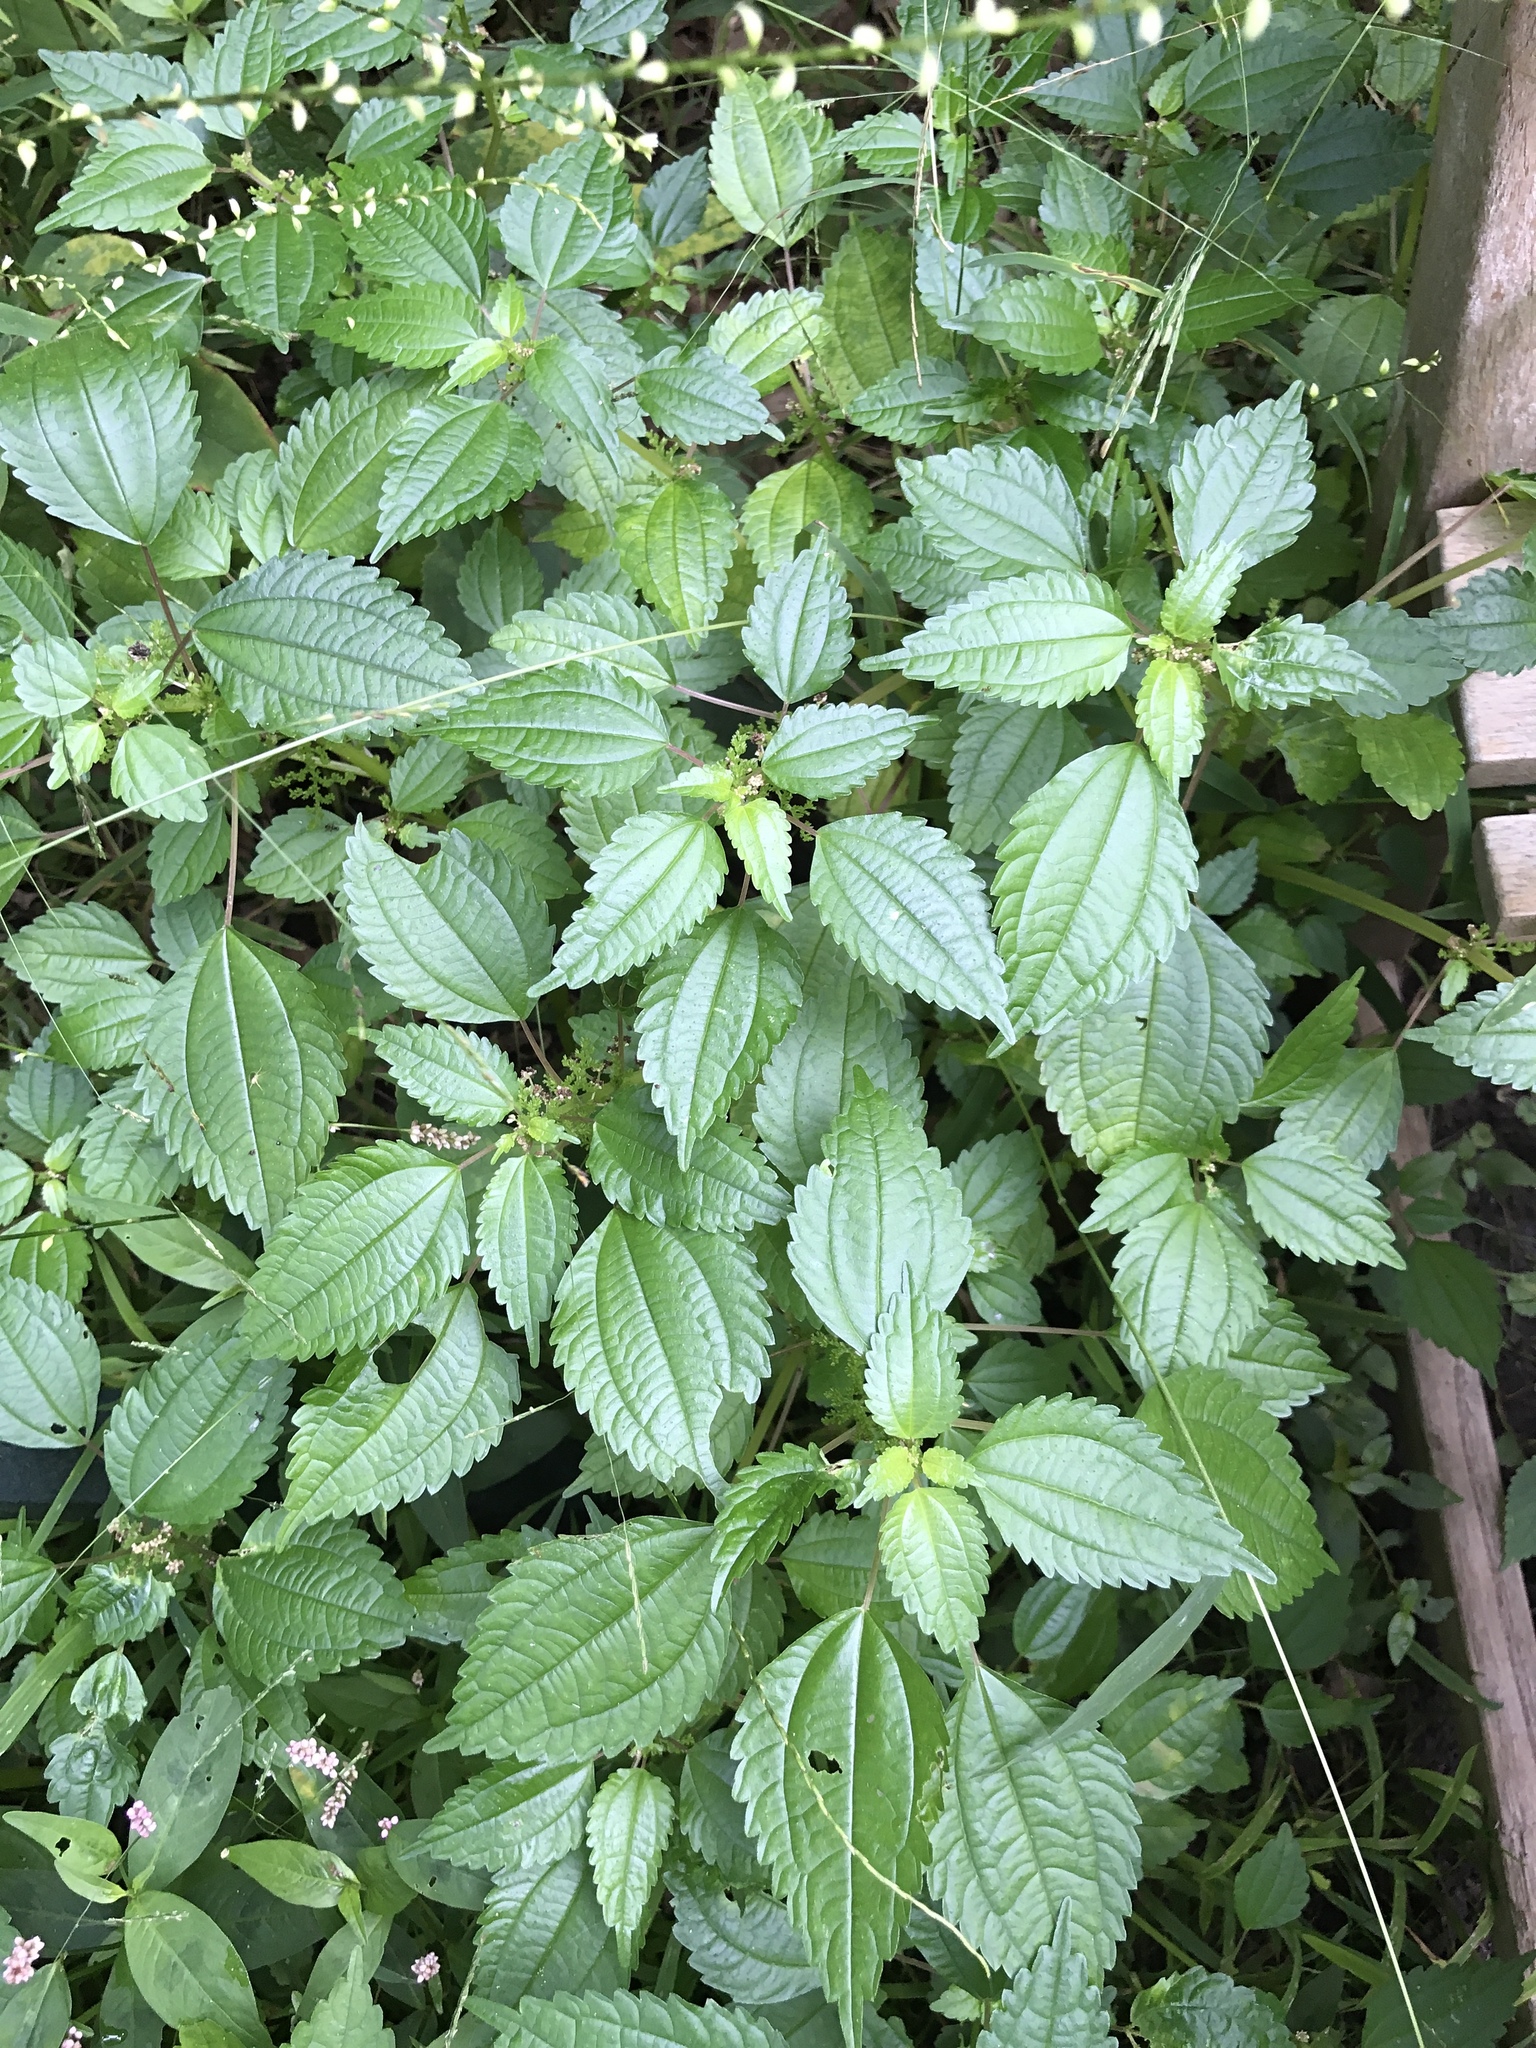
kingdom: Plantae
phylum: Tracheophyta
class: Magnoliopsida
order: Rosales
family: Urticaceae
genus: Pilea
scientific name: Pilea pumila
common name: Clearweed
